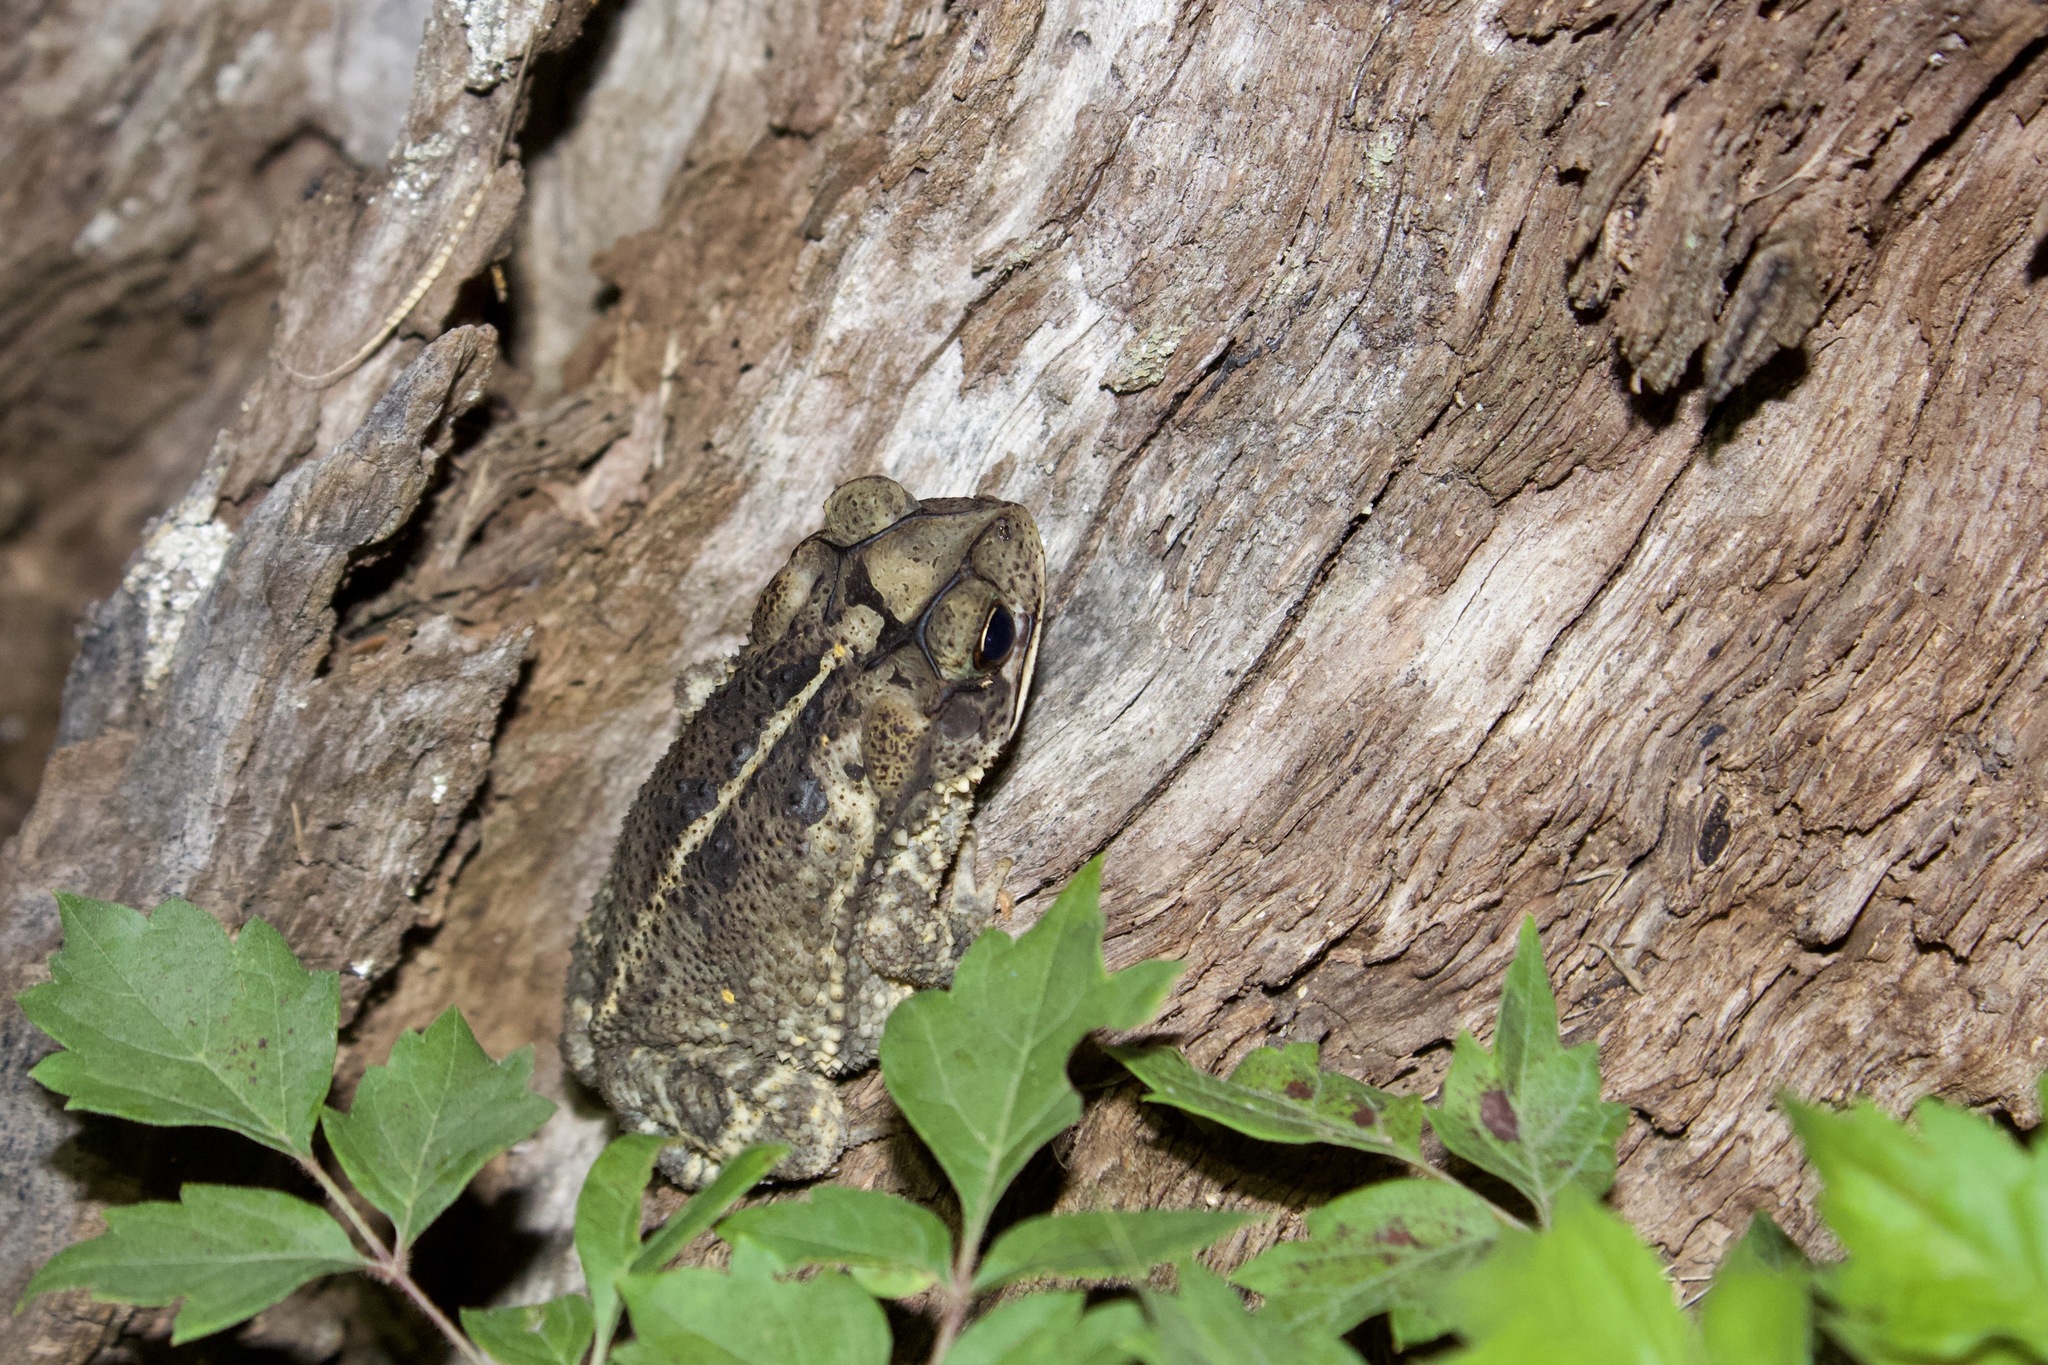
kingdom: Animalia
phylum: Chordata
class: Amphibia
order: Anura
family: Bufonidae
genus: Incilius
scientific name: Incilius nebulifer
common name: Gulf coast toad
